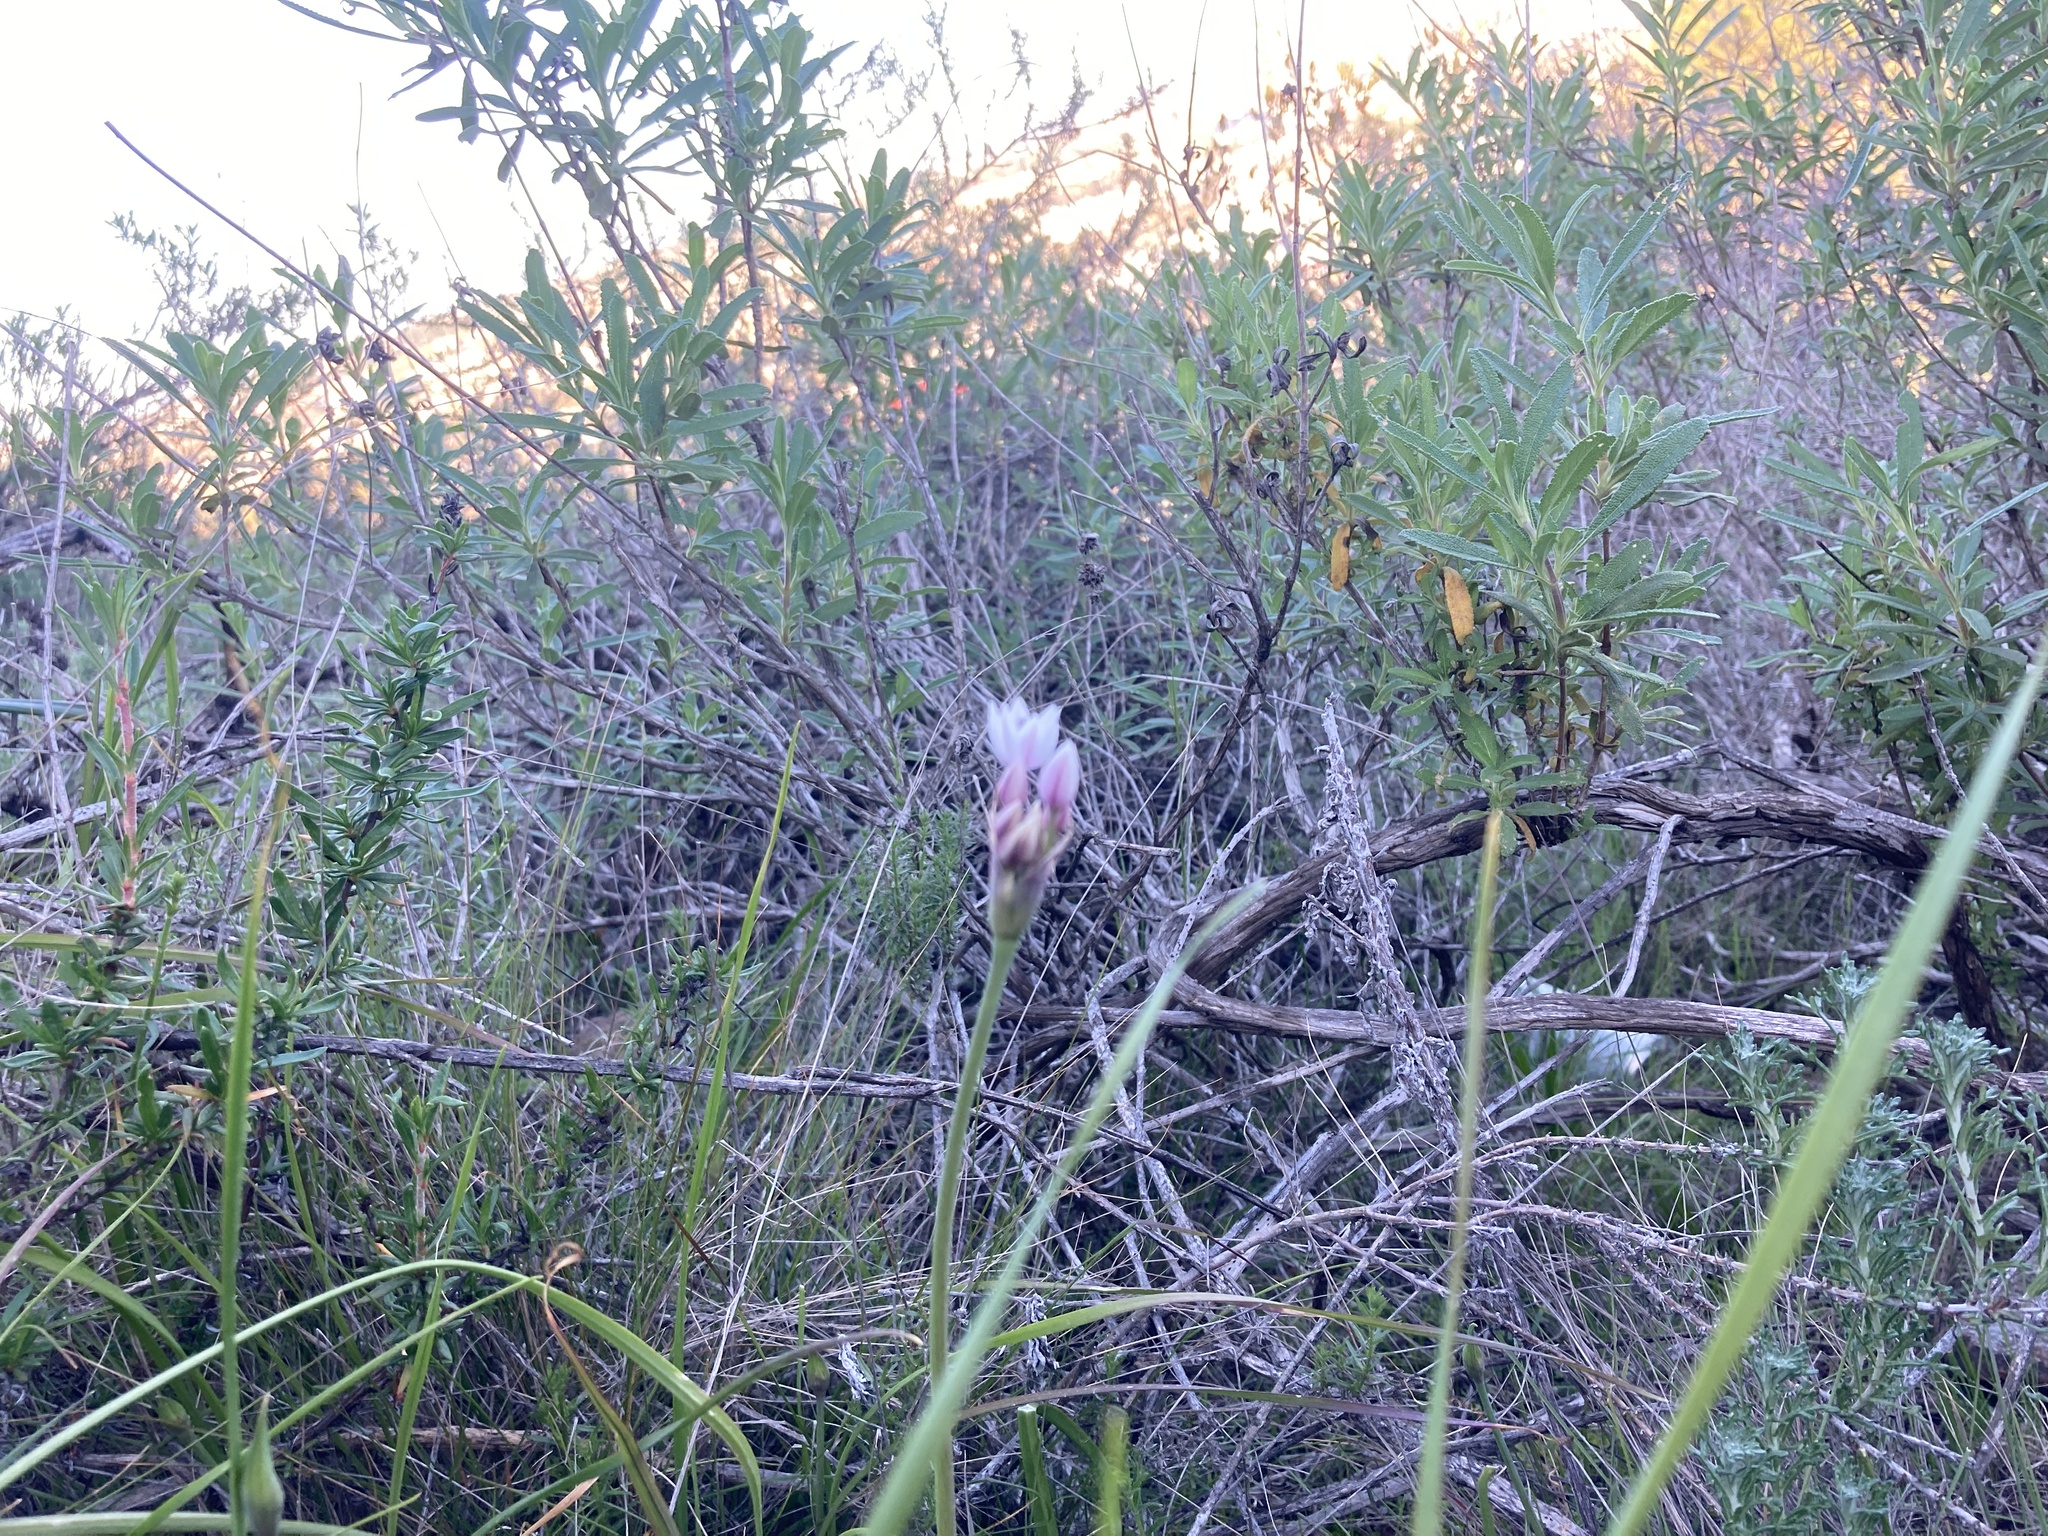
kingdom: Plantae
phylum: Tracheophyta
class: Liliopsida
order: Asparagales
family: Amaryllidaceae
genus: Allium
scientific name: Allium praecox
